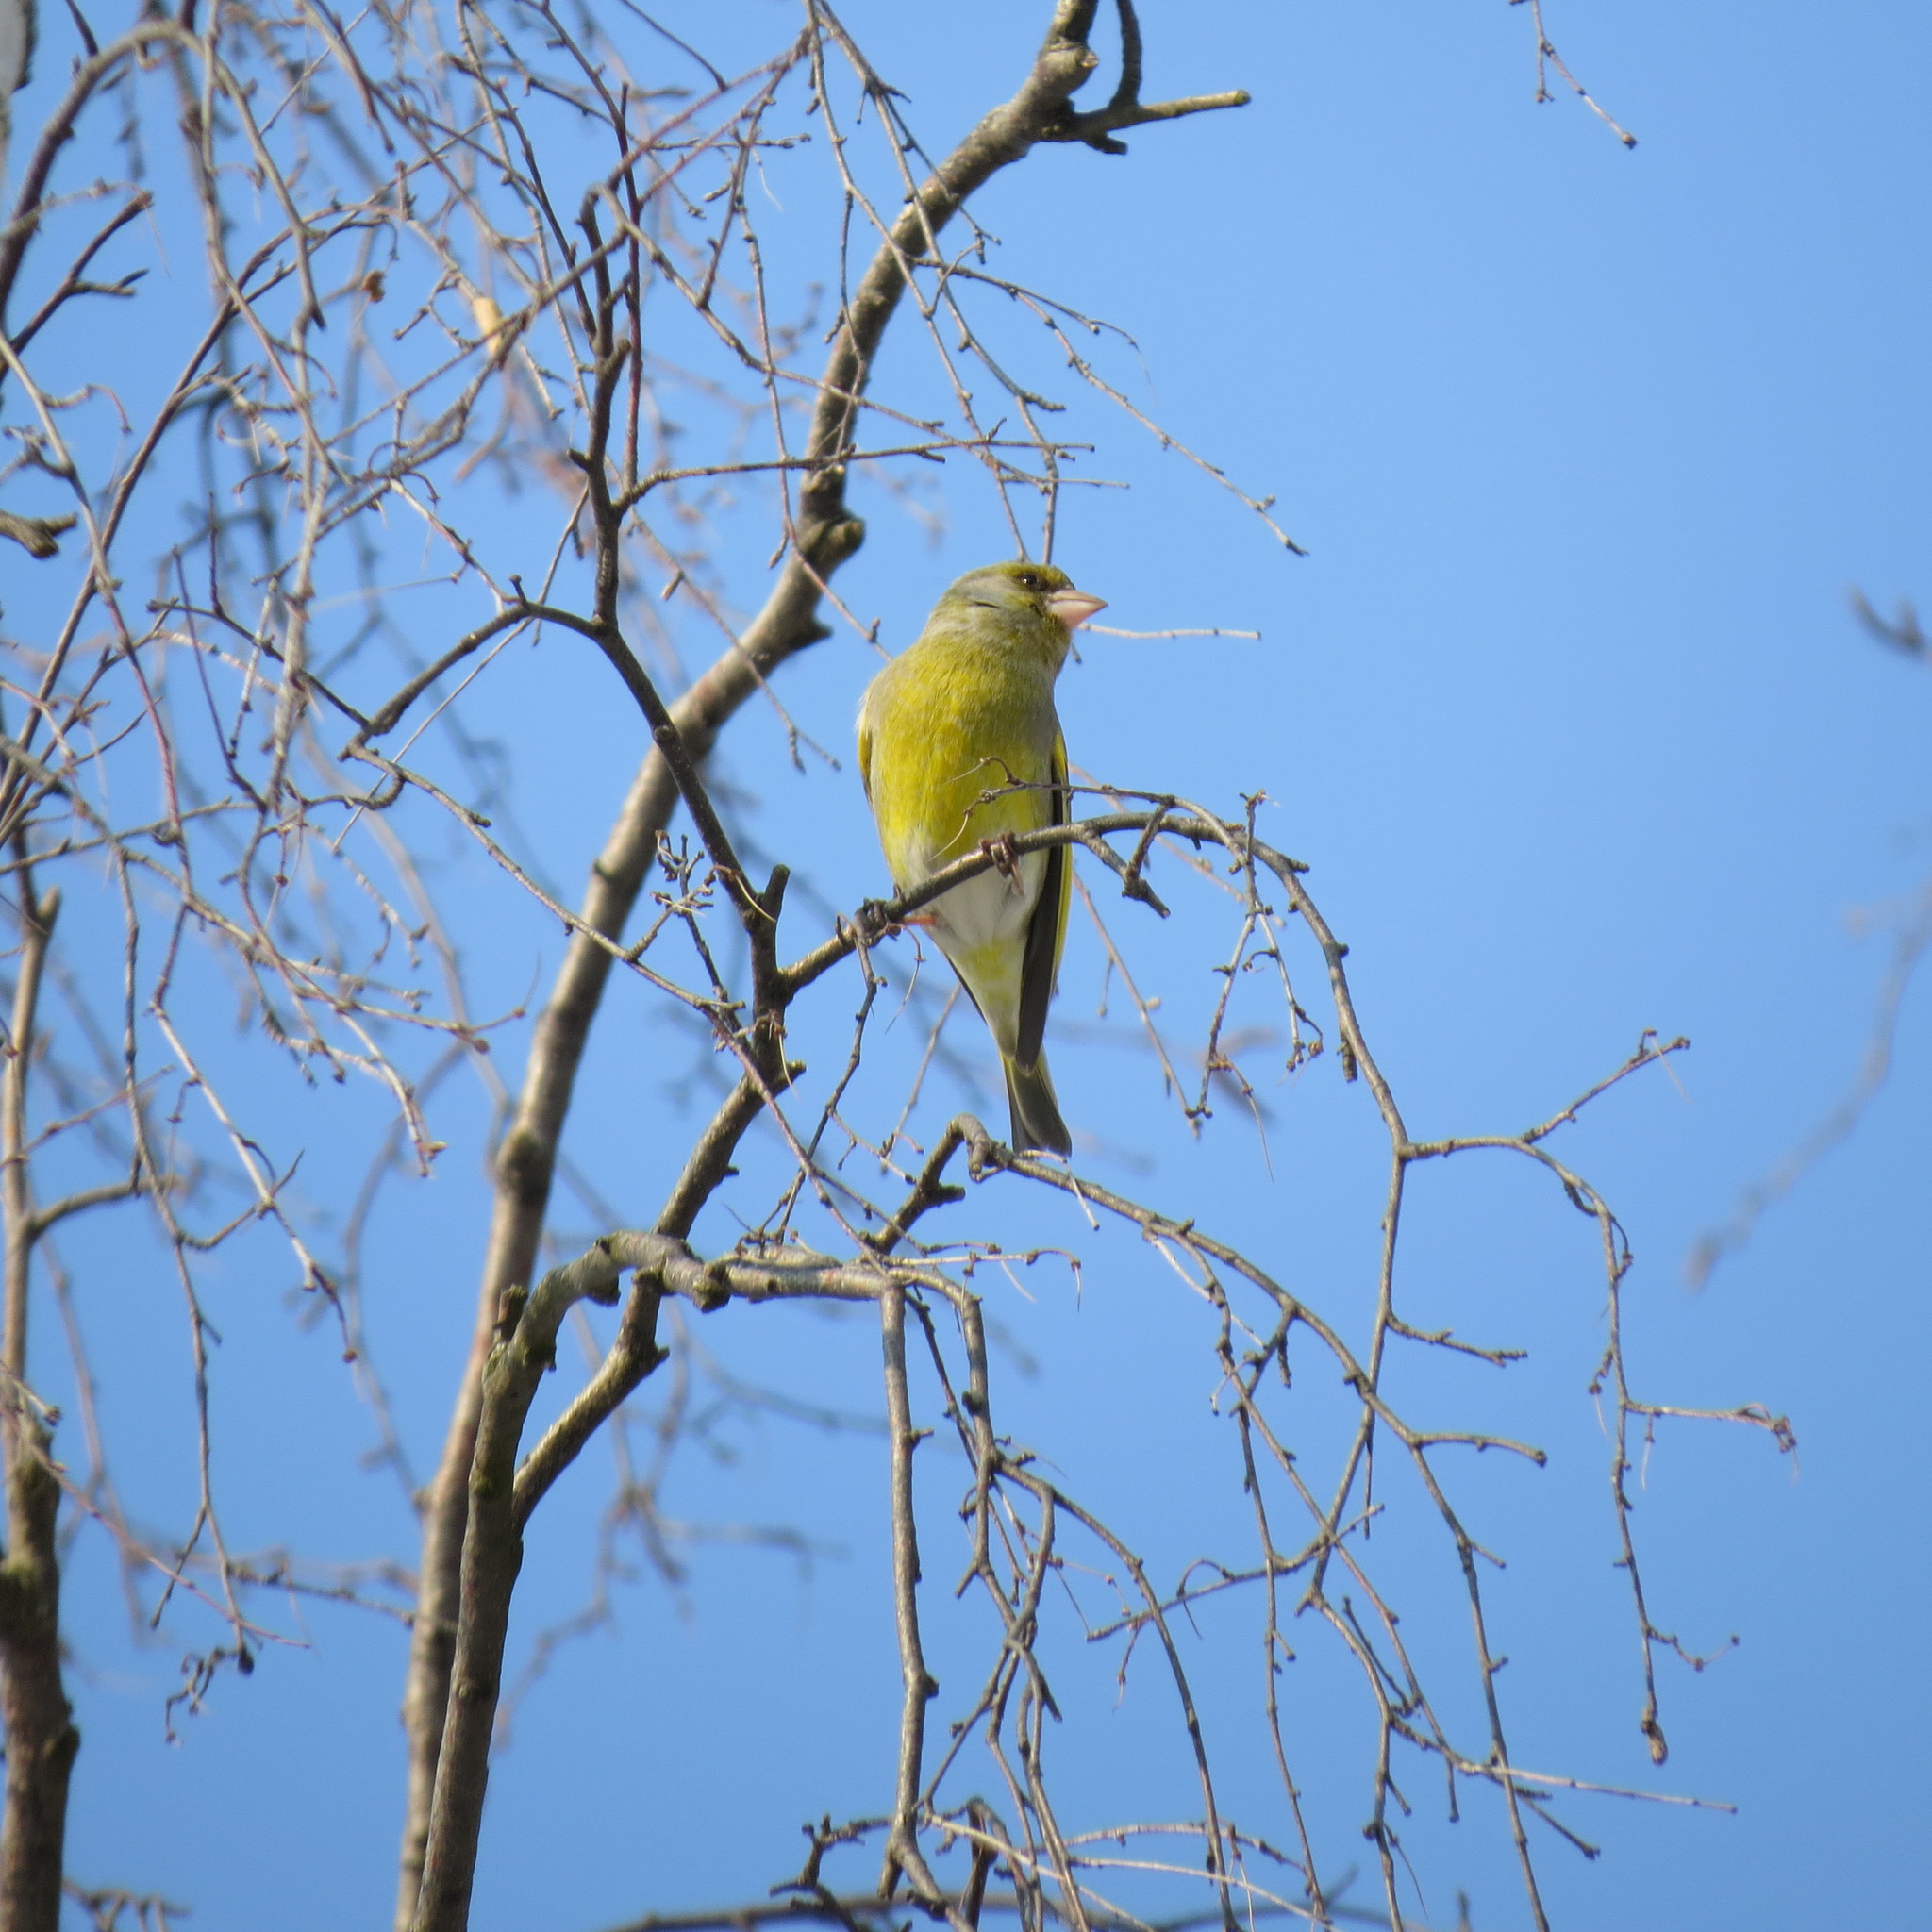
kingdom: Plantae
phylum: Tracheophyta
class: Liliopsida
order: Poales
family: Poaceae
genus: Chloris
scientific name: Chloris chloris
